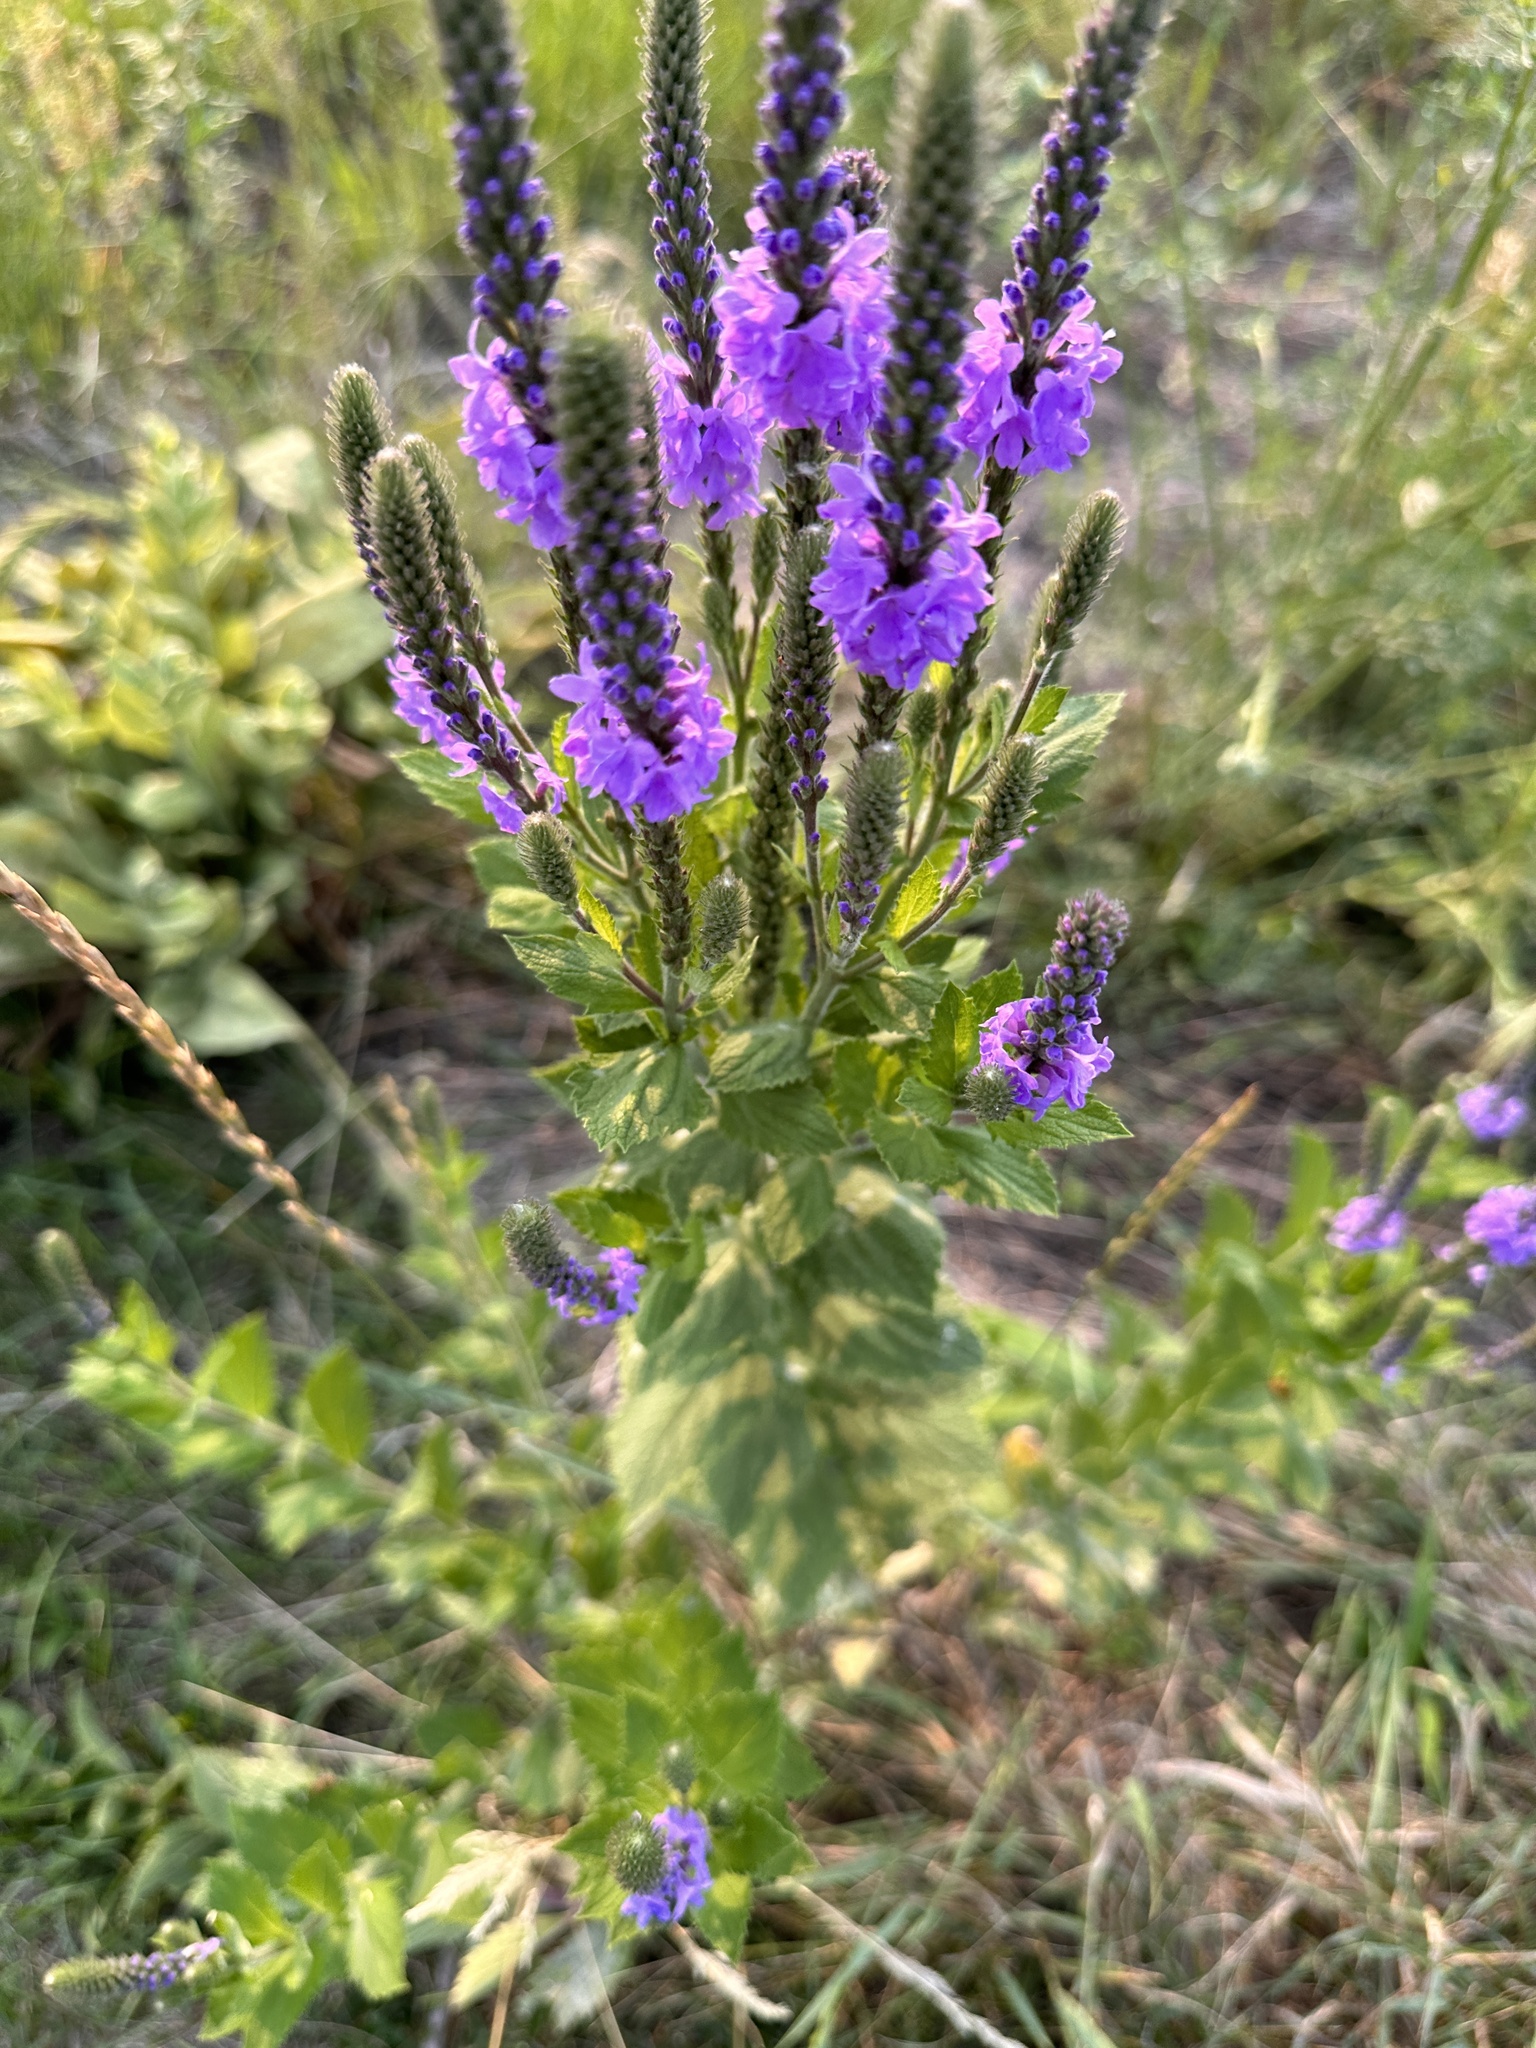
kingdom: Plantae
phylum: Tracheophyta
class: Magnoliopsida
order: Lamiales
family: Verbenaceae
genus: Verbena
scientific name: Verbena stricta
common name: Hoary vervain
